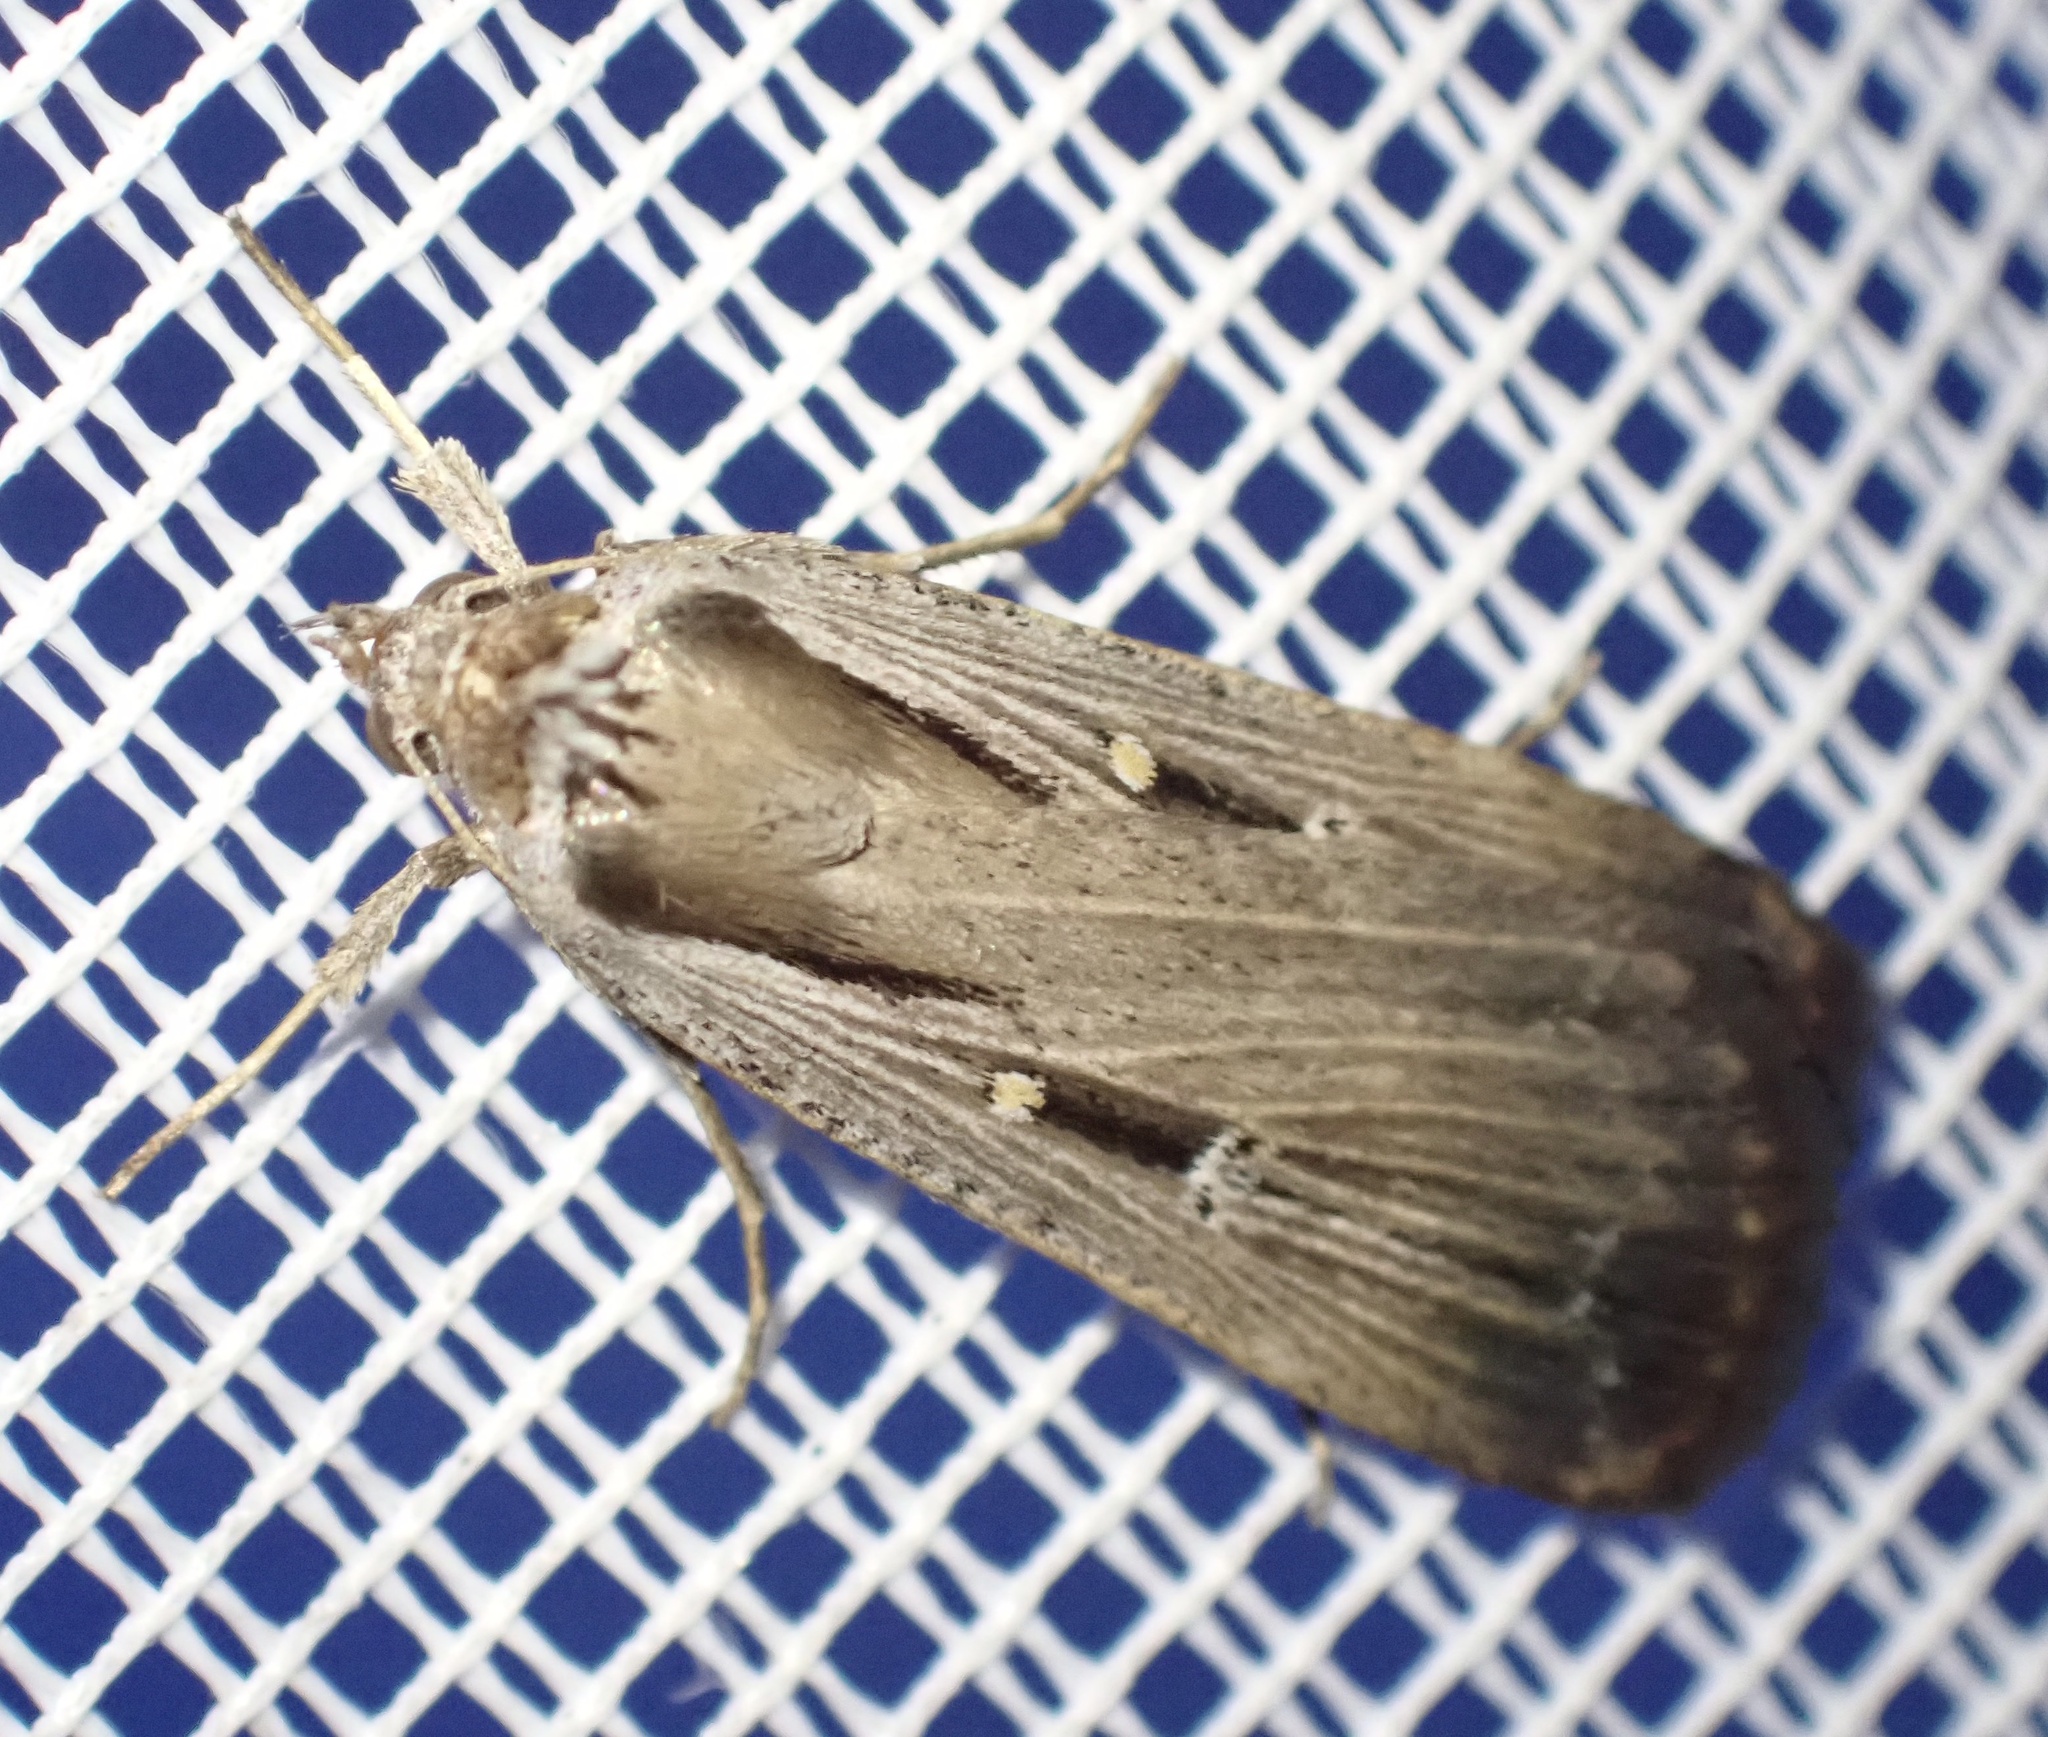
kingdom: Animalia
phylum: Arthropoda
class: Insecta
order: Lepidoptera
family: Noctuidae
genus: Tathorhynchus
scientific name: Tathorhynchus exsiccata
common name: Levant blackneck moth
